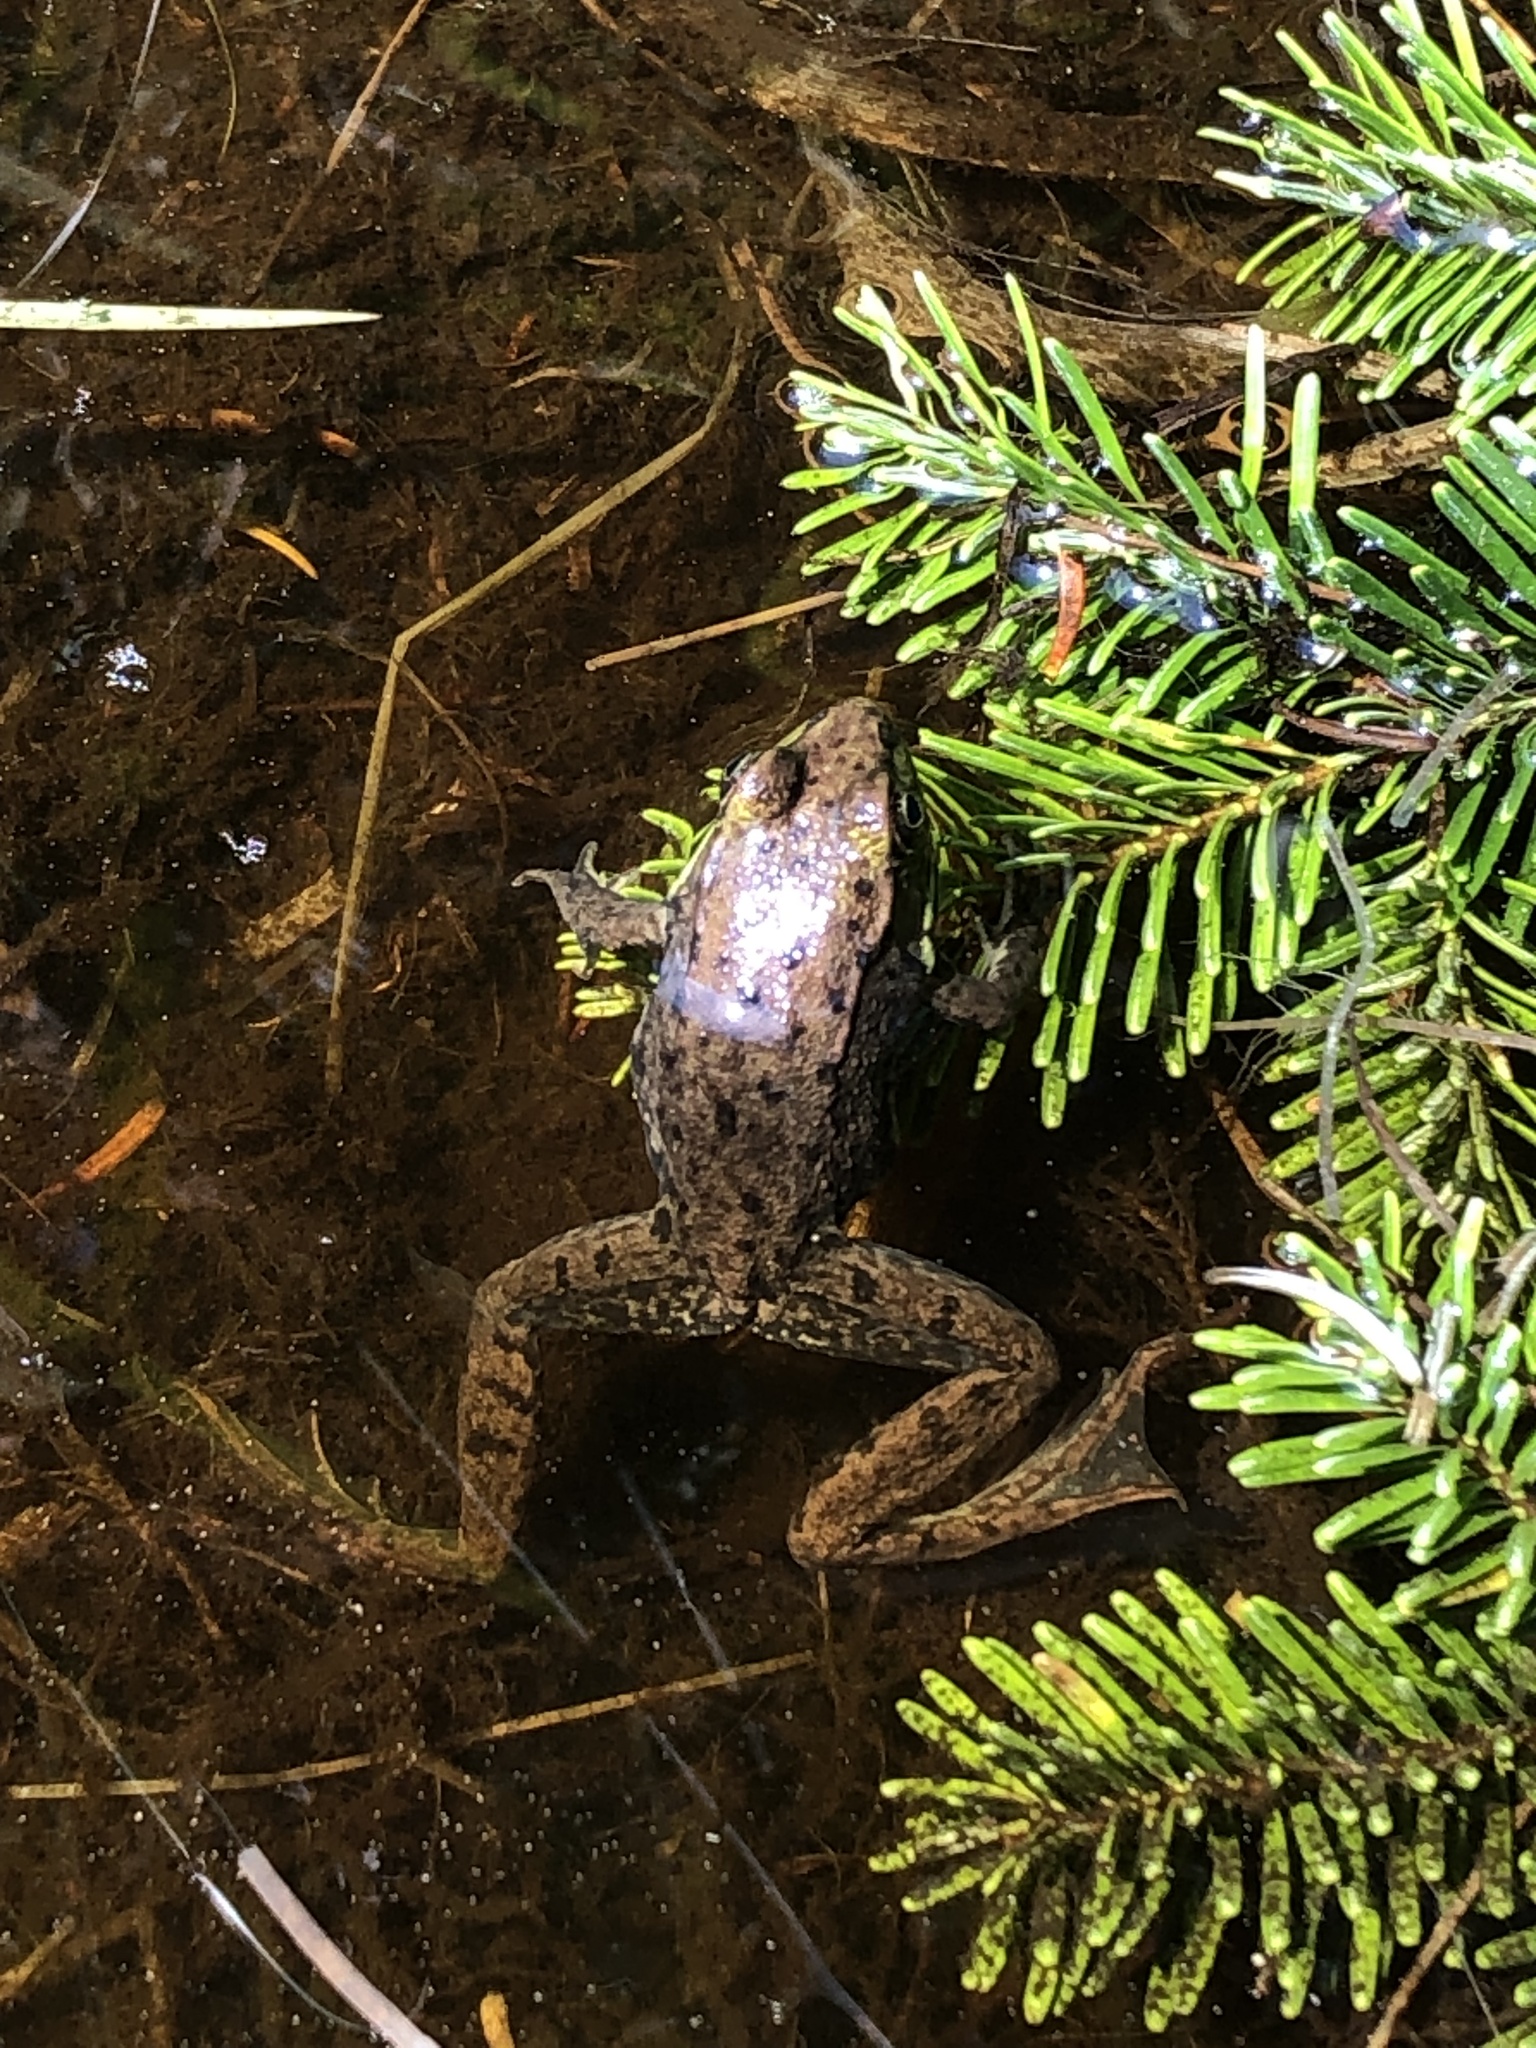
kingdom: Animalia
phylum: Chordata
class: Amphibia
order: Anura
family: Ranidae
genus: Lithobates
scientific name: Lithobates clamitans
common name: Green frog
